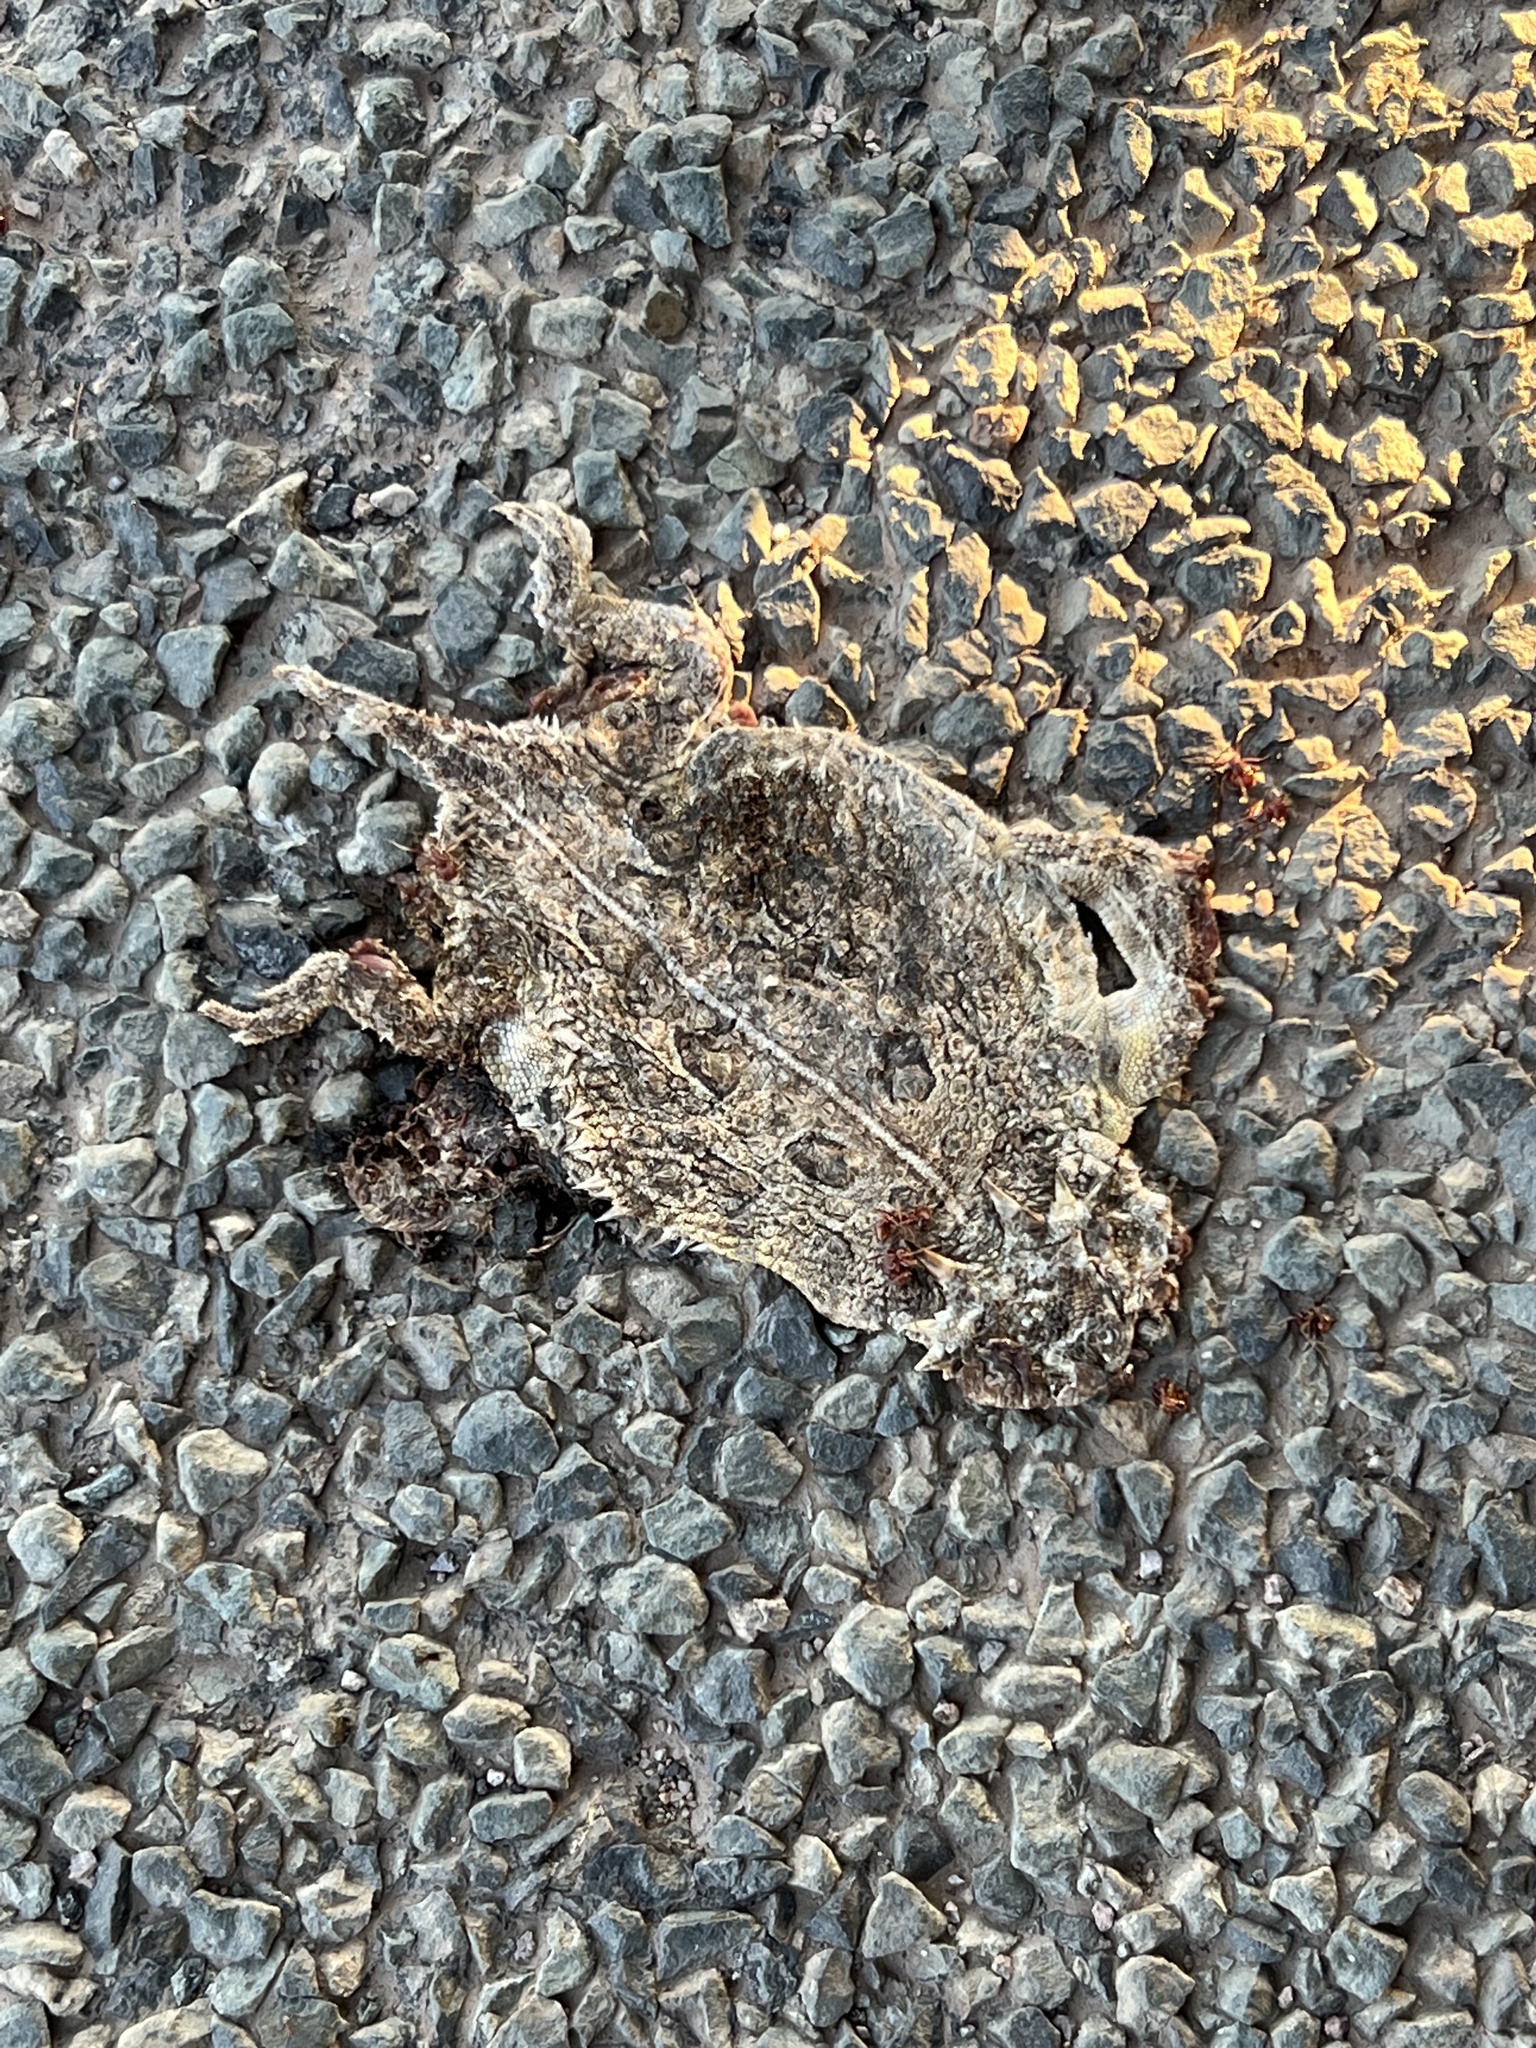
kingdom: Animalia
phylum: Chordata
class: Squamata
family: Phrynosomatidae
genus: Phrynosoma
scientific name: Phrynosoma cornutum
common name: Texas horned lizard
